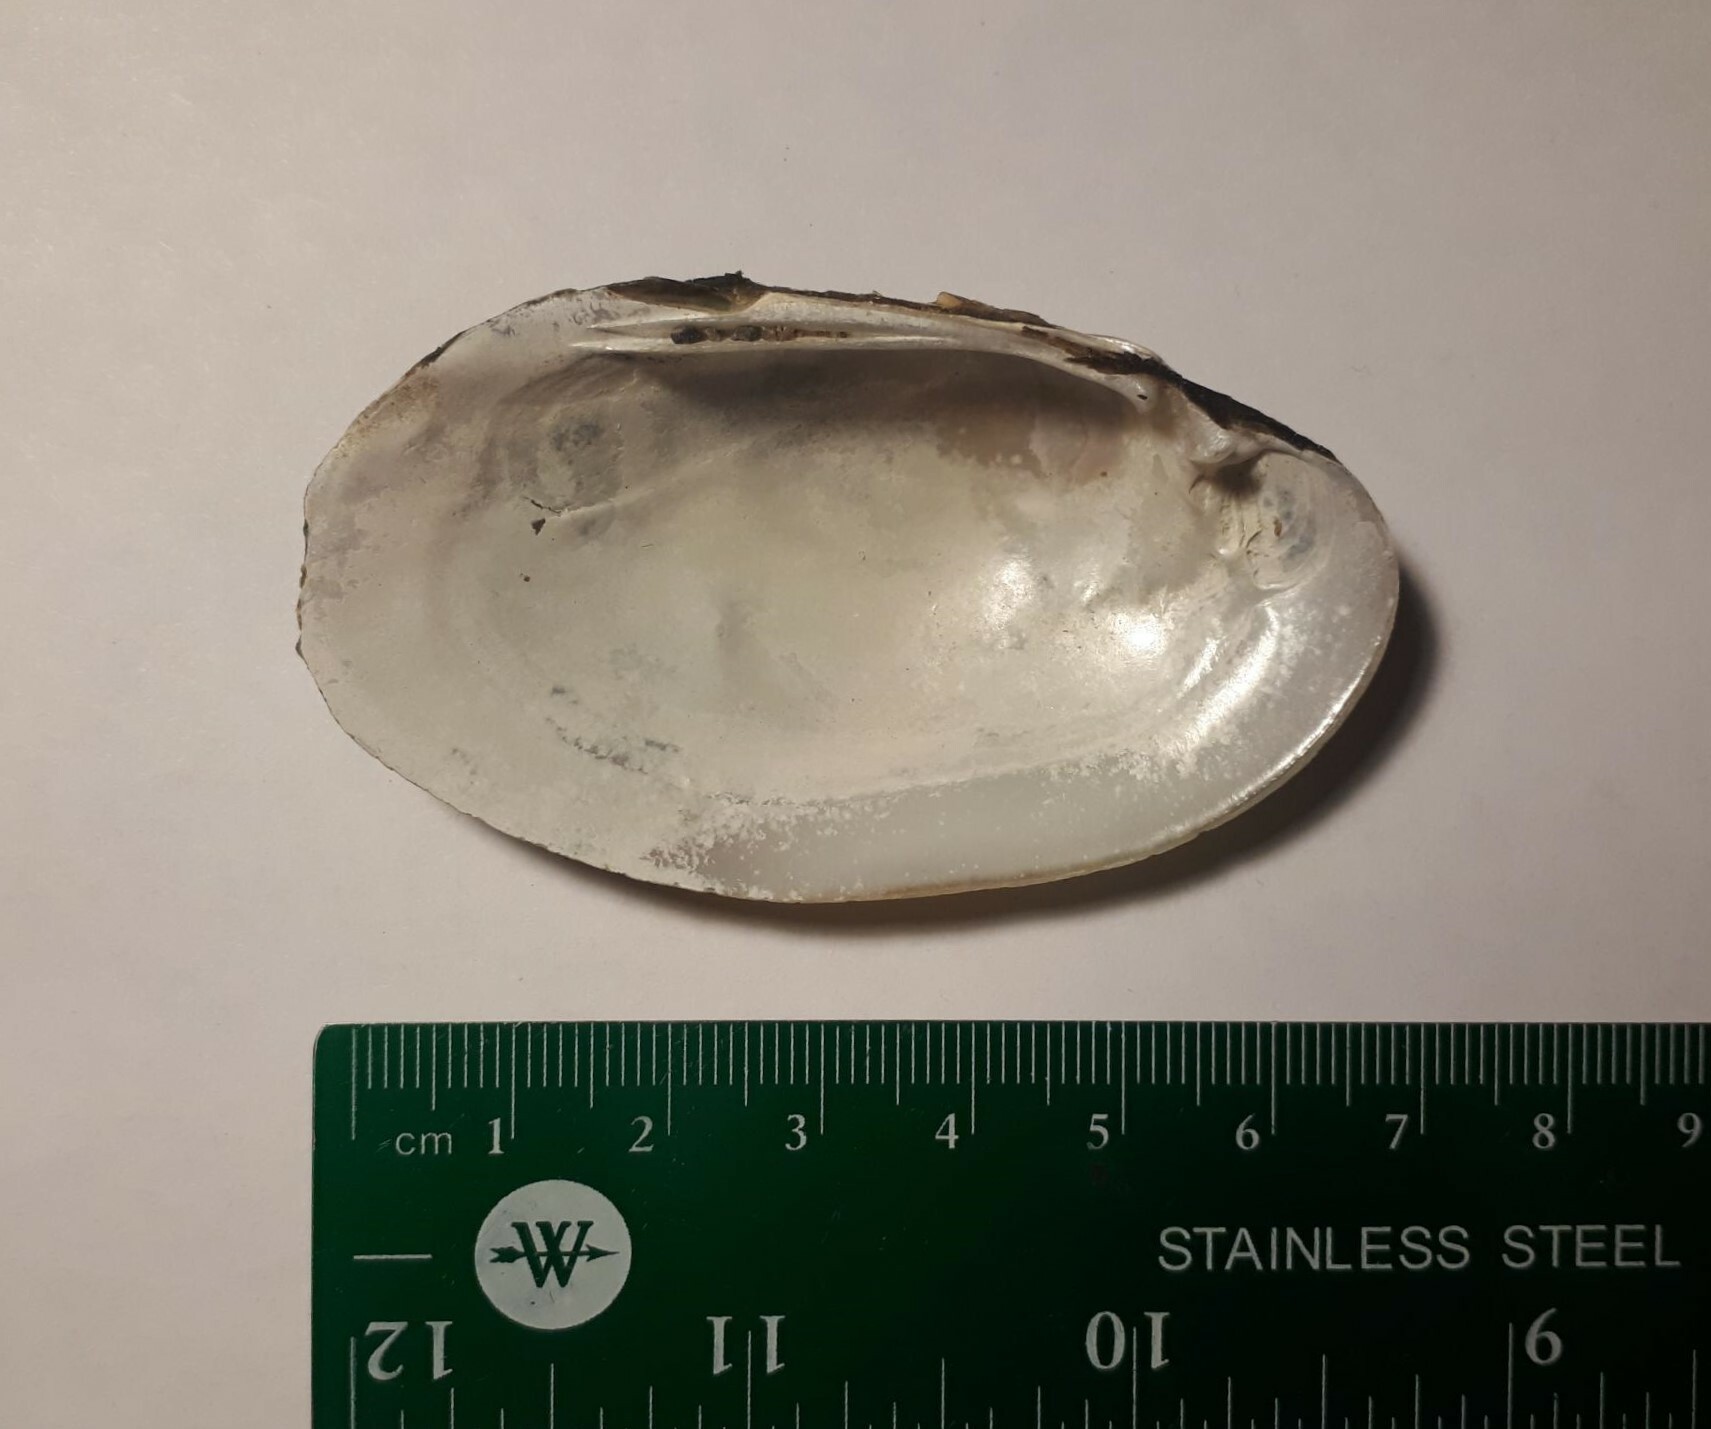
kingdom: Animalia
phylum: Mollusca
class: Bivalvia
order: Unionida
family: Unionidae
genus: Lampsilis
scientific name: Lampsilis radiata
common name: Eastern lampmussel
